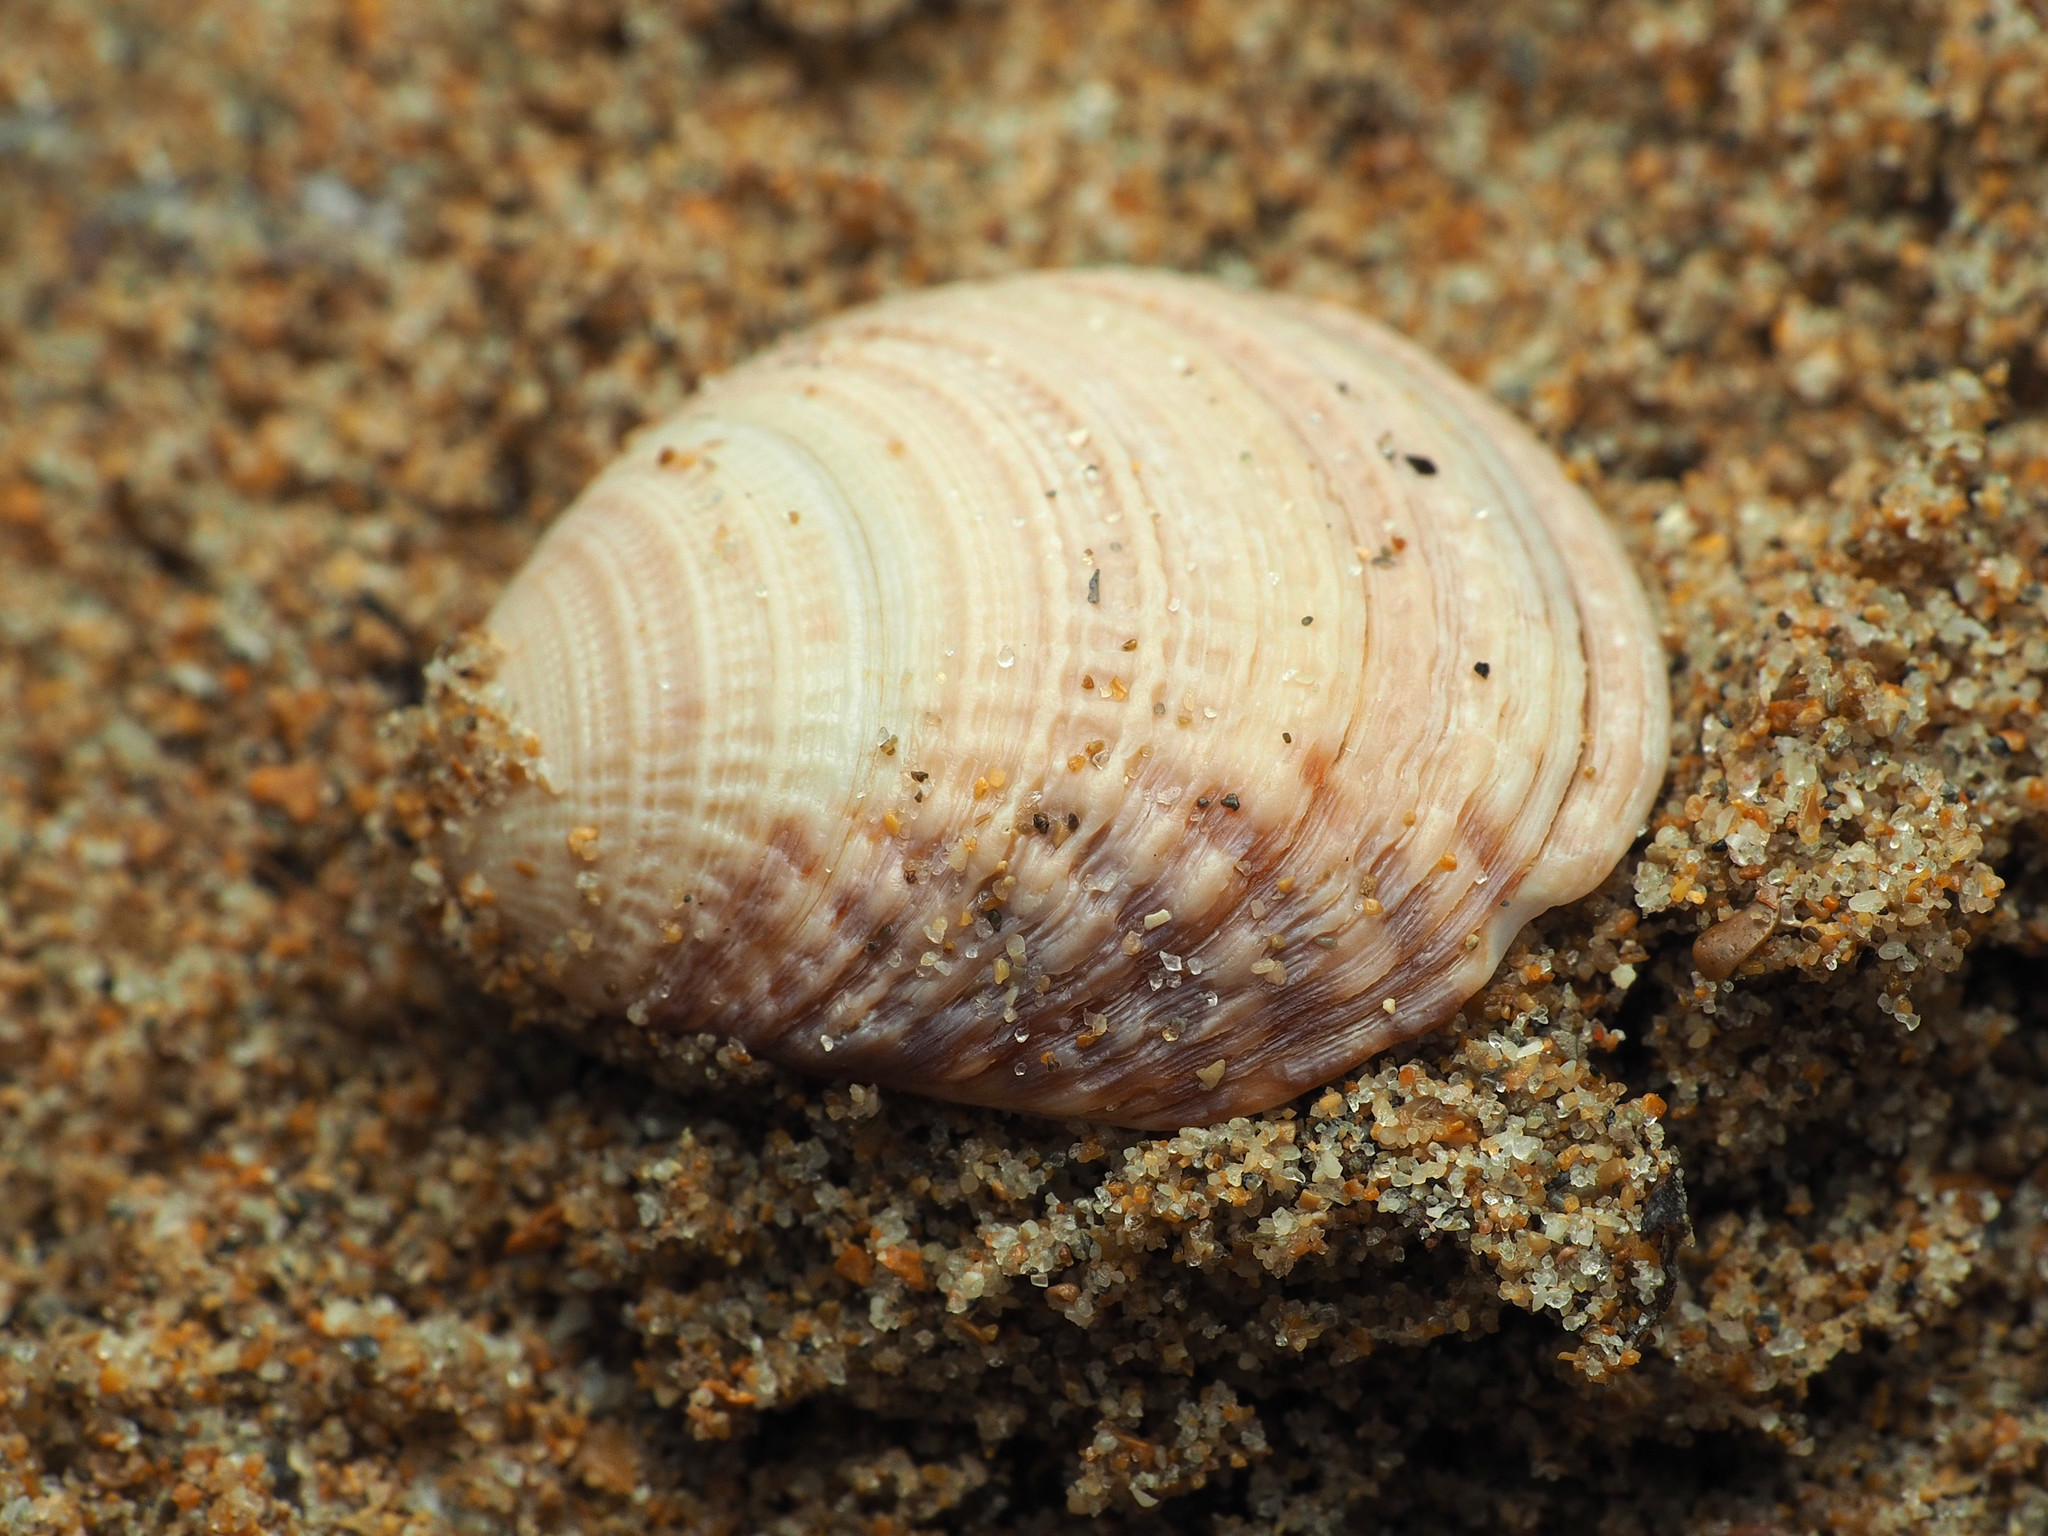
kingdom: Animalia
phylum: Mollusca
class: Bivalvia
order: Venerida
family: Veneridae
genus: Venus
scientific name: Venus verrucosa
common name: Warty venus
